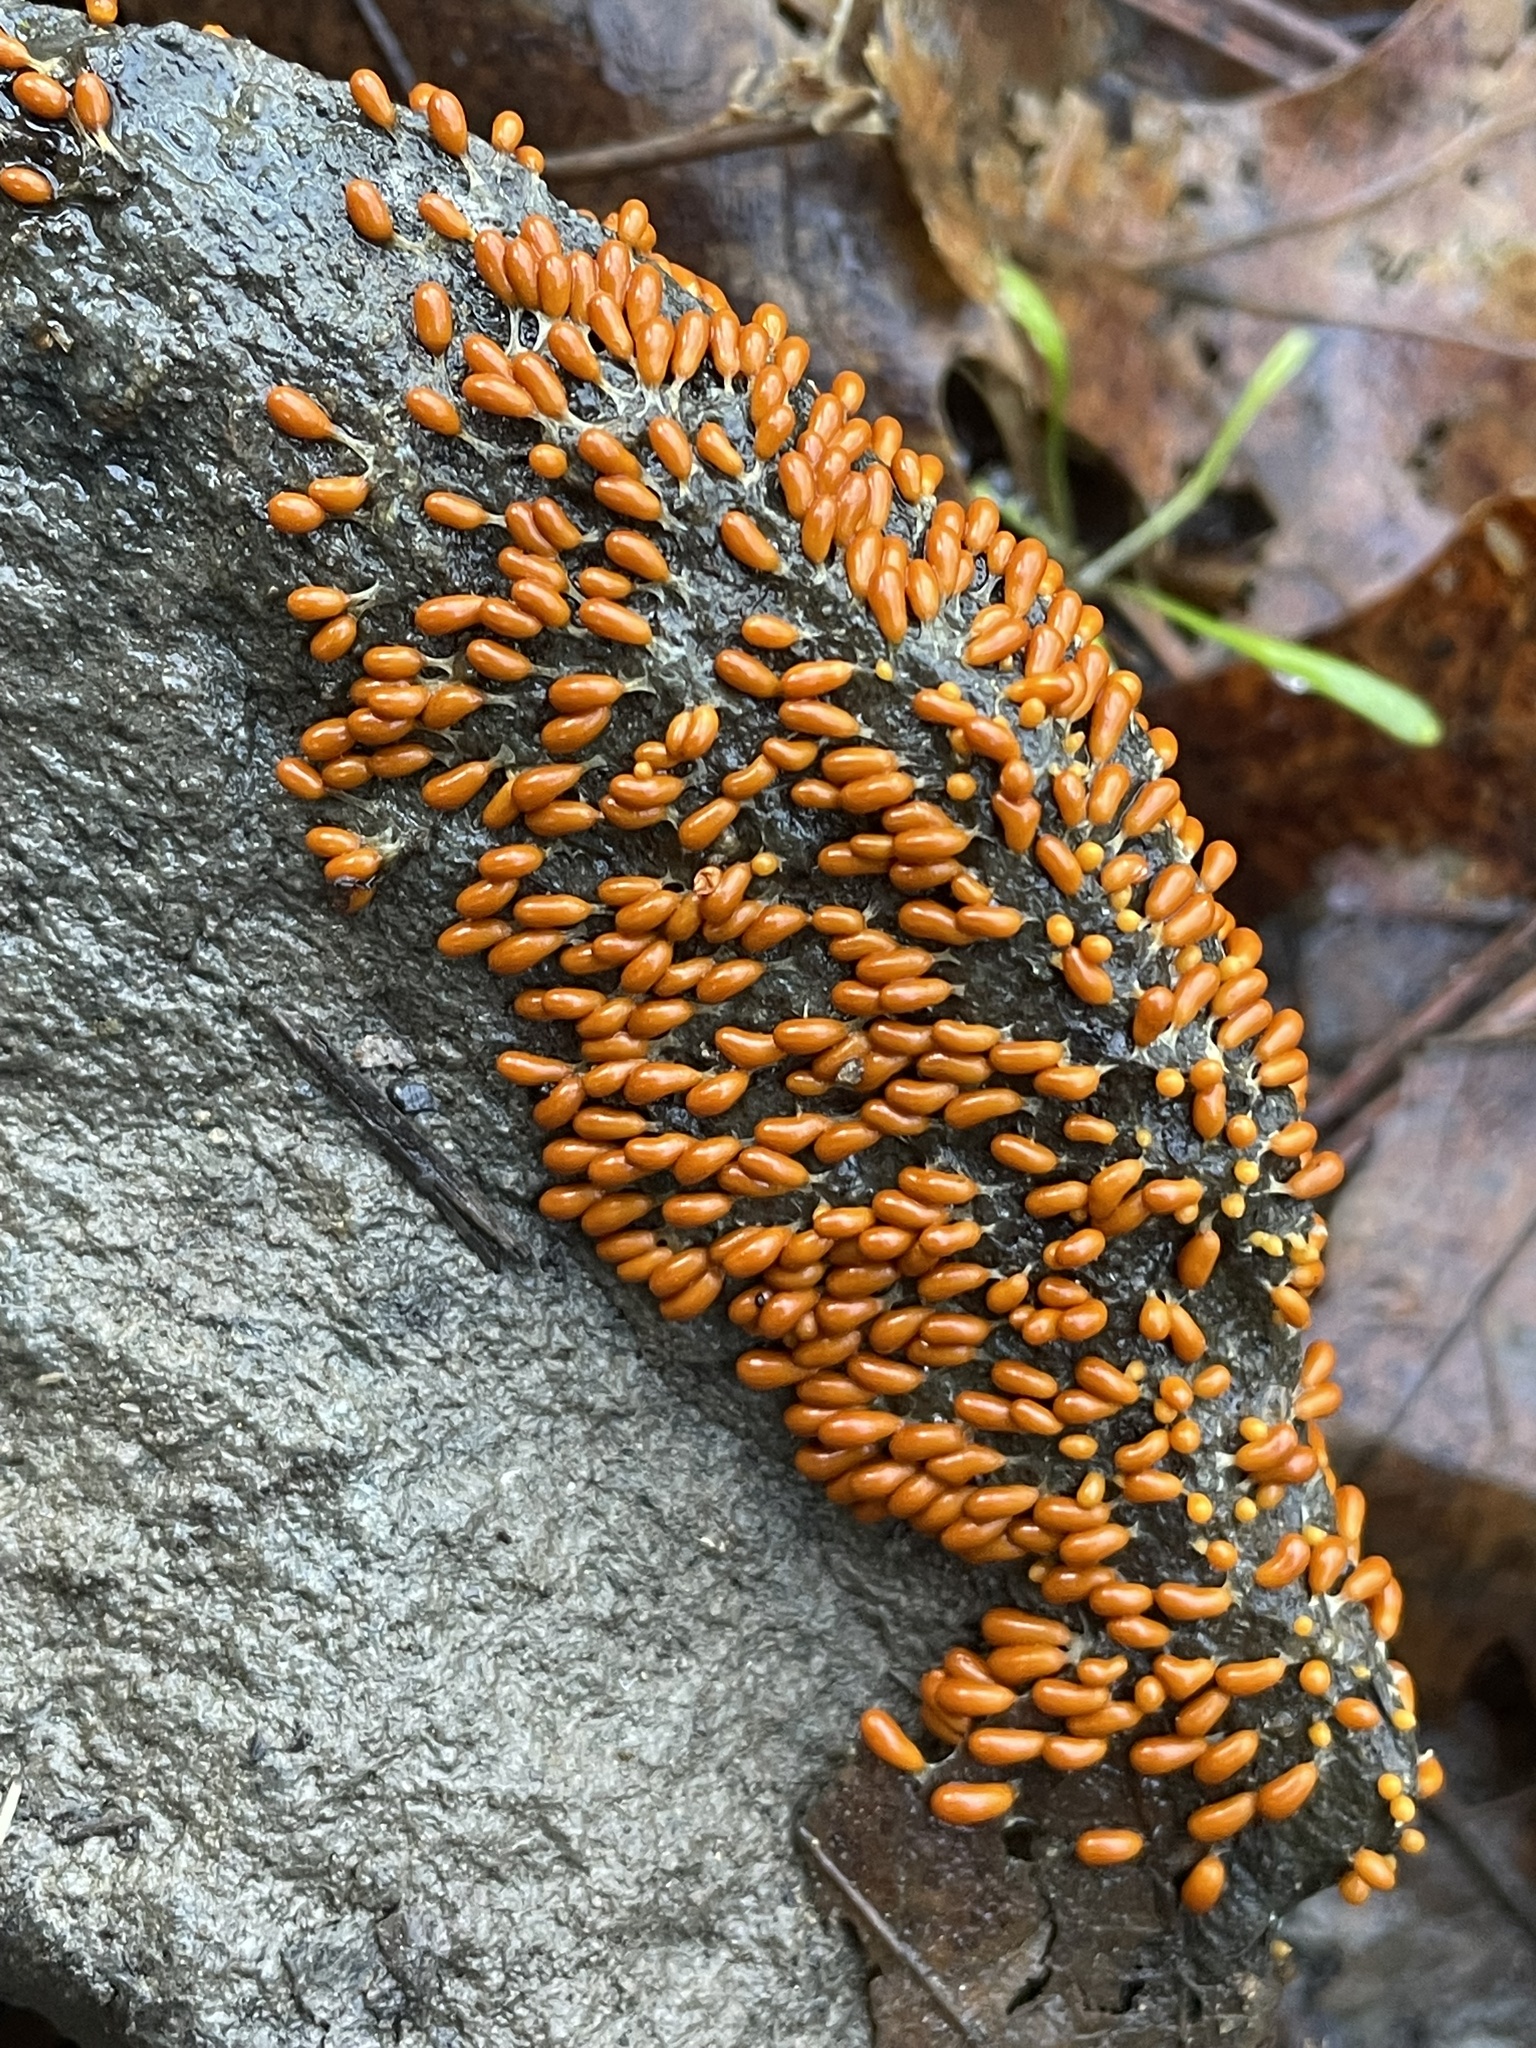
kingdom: Protozoa
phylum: Mycetozoa
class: Myxomycetes
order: Physarales
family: Physaraceae
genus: Leocarpus
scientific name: Leocarpus fragilis
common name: Insect-egg slime
